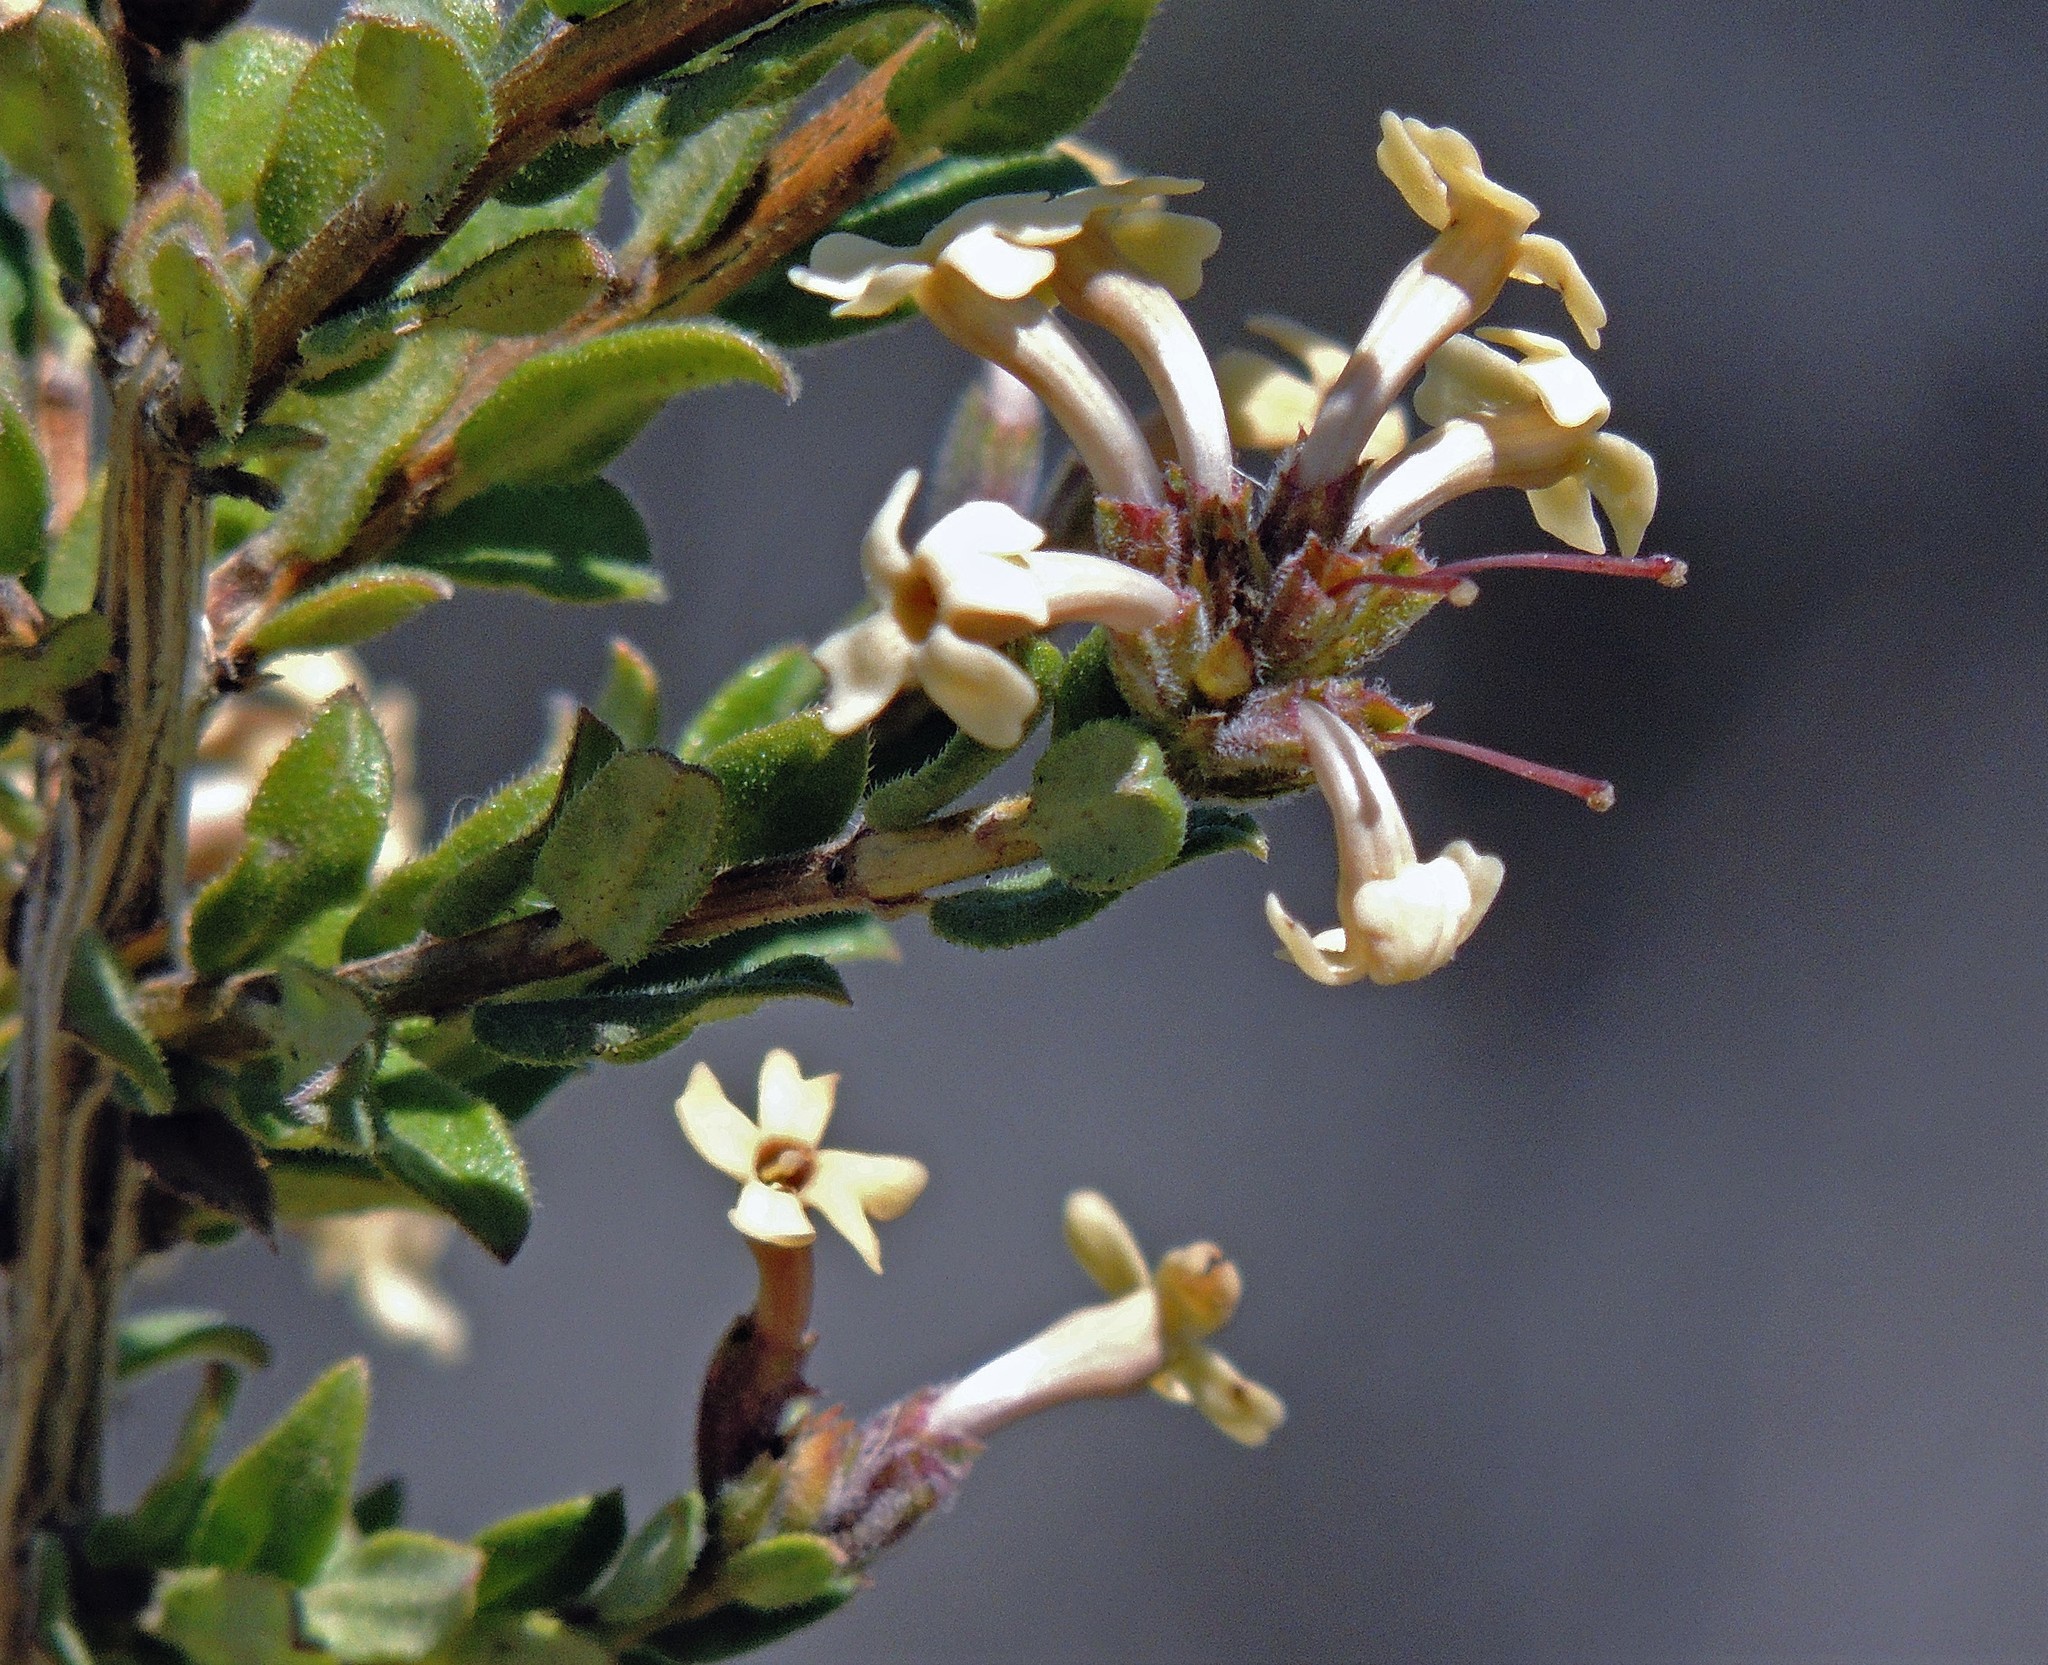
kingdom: Plantae
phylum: Tracheophyta
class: Magnoliopsida
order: Lamiales
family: Verbenaceae
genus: Mulguraea
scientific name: Mulguraea ligustrina
